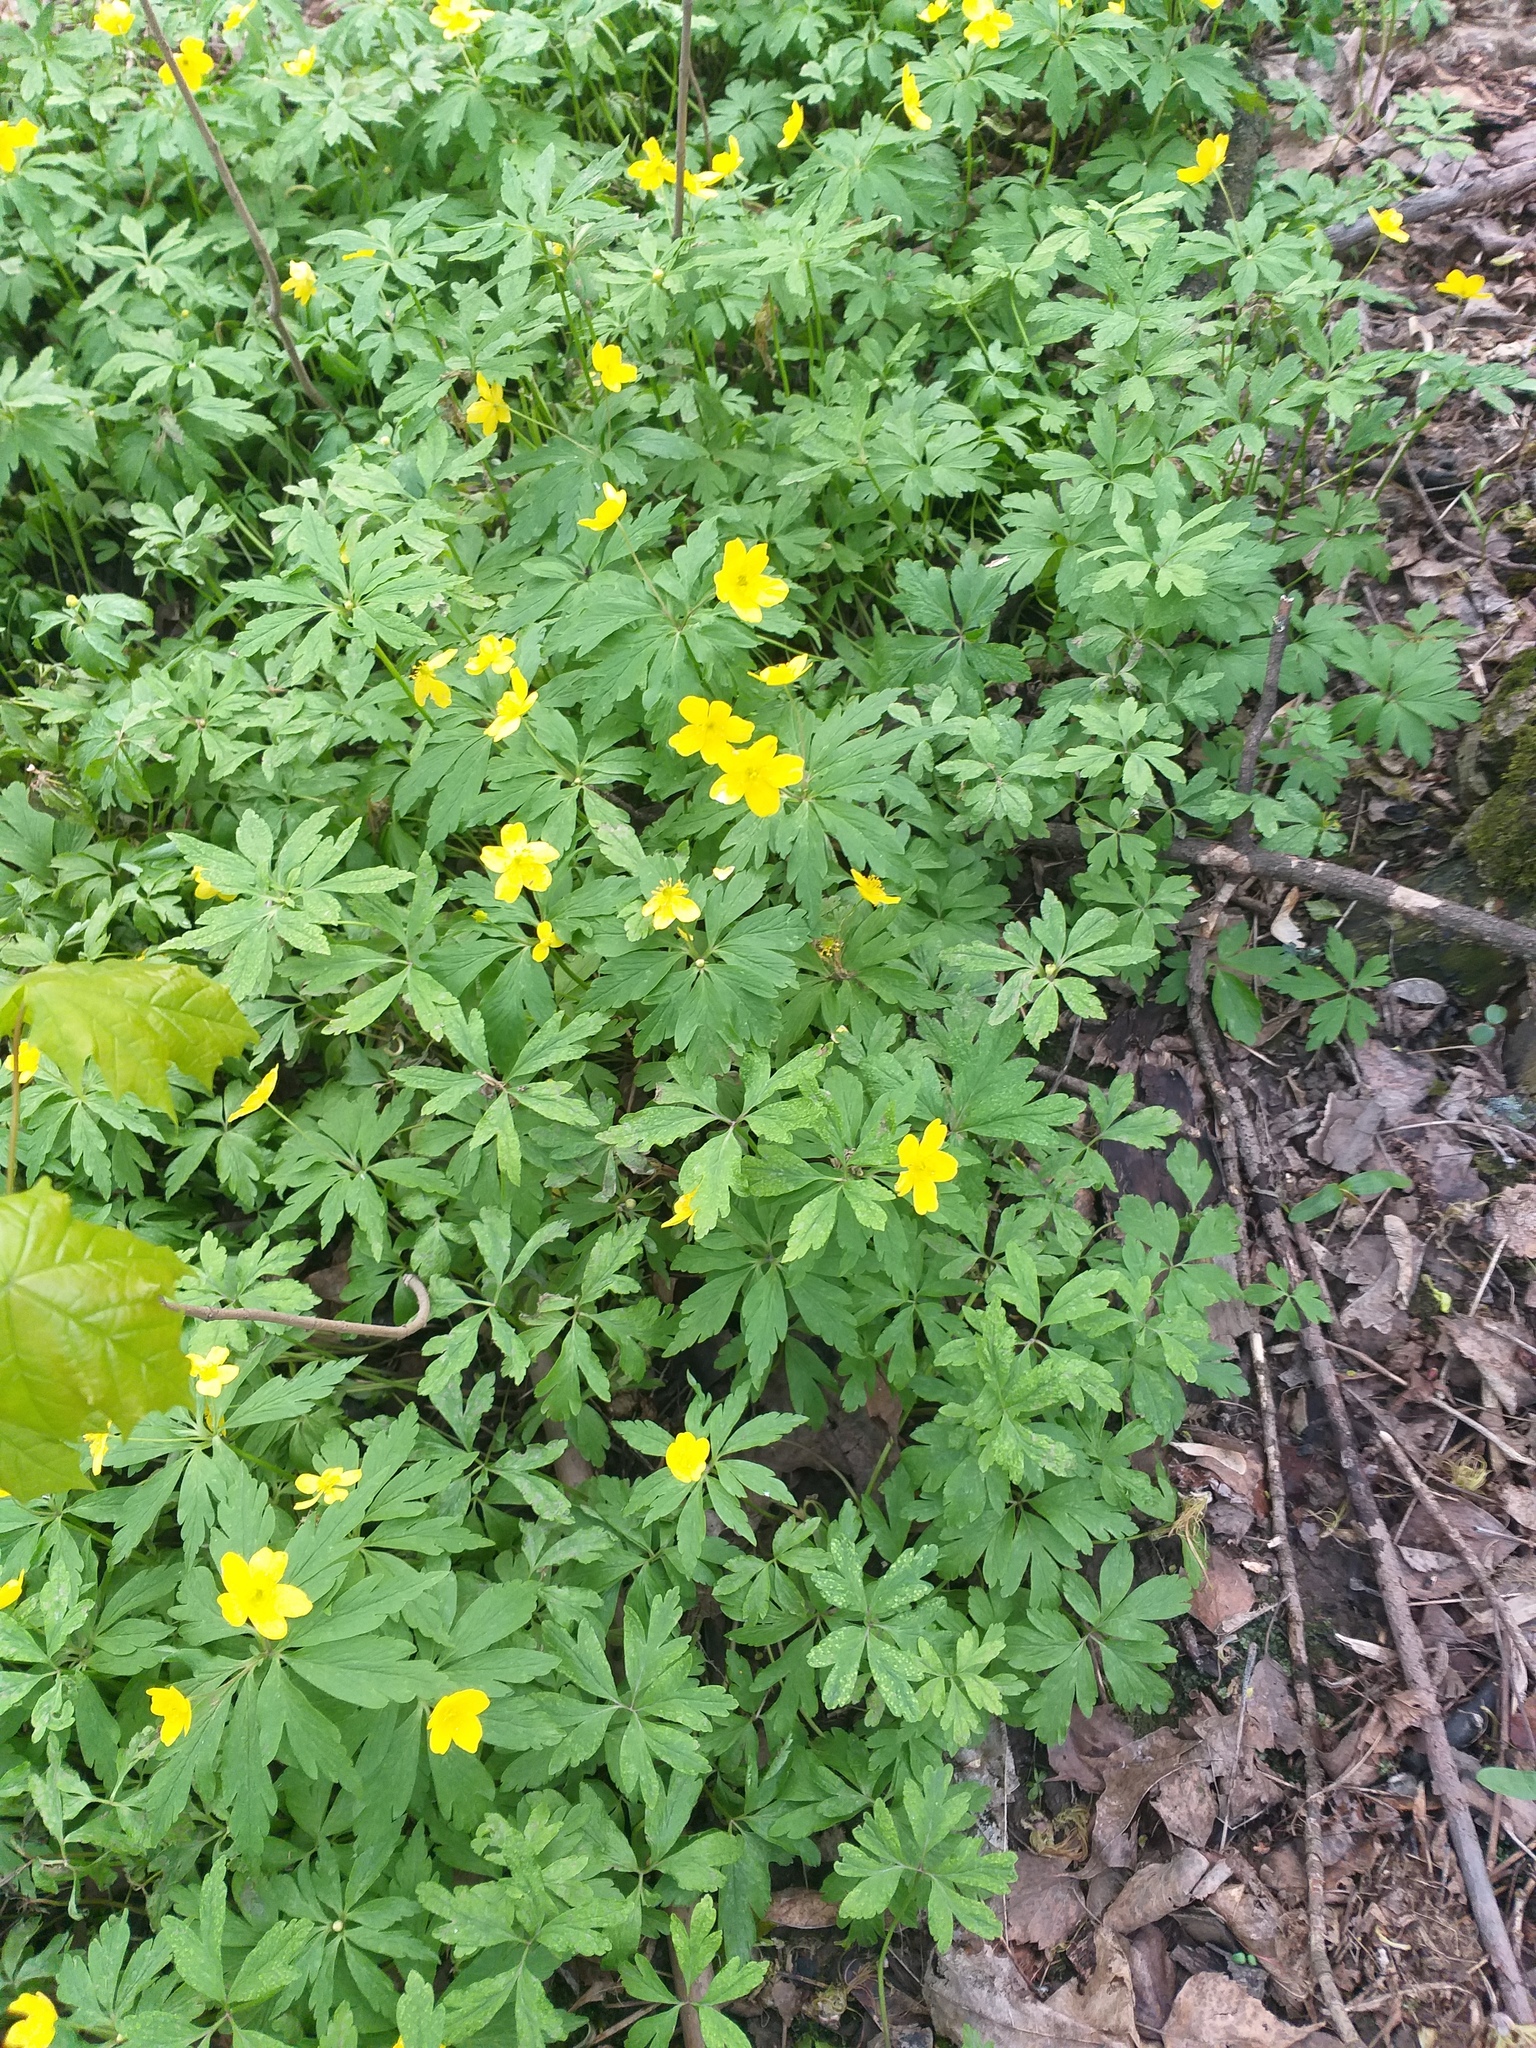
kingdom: Plantae
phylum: Tracheophyta
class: Magnoliopsida
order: Ranunculales
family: Ranunculaceae
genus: Anemone
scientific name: Anemone ranunculoides
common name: Yellow anemone
